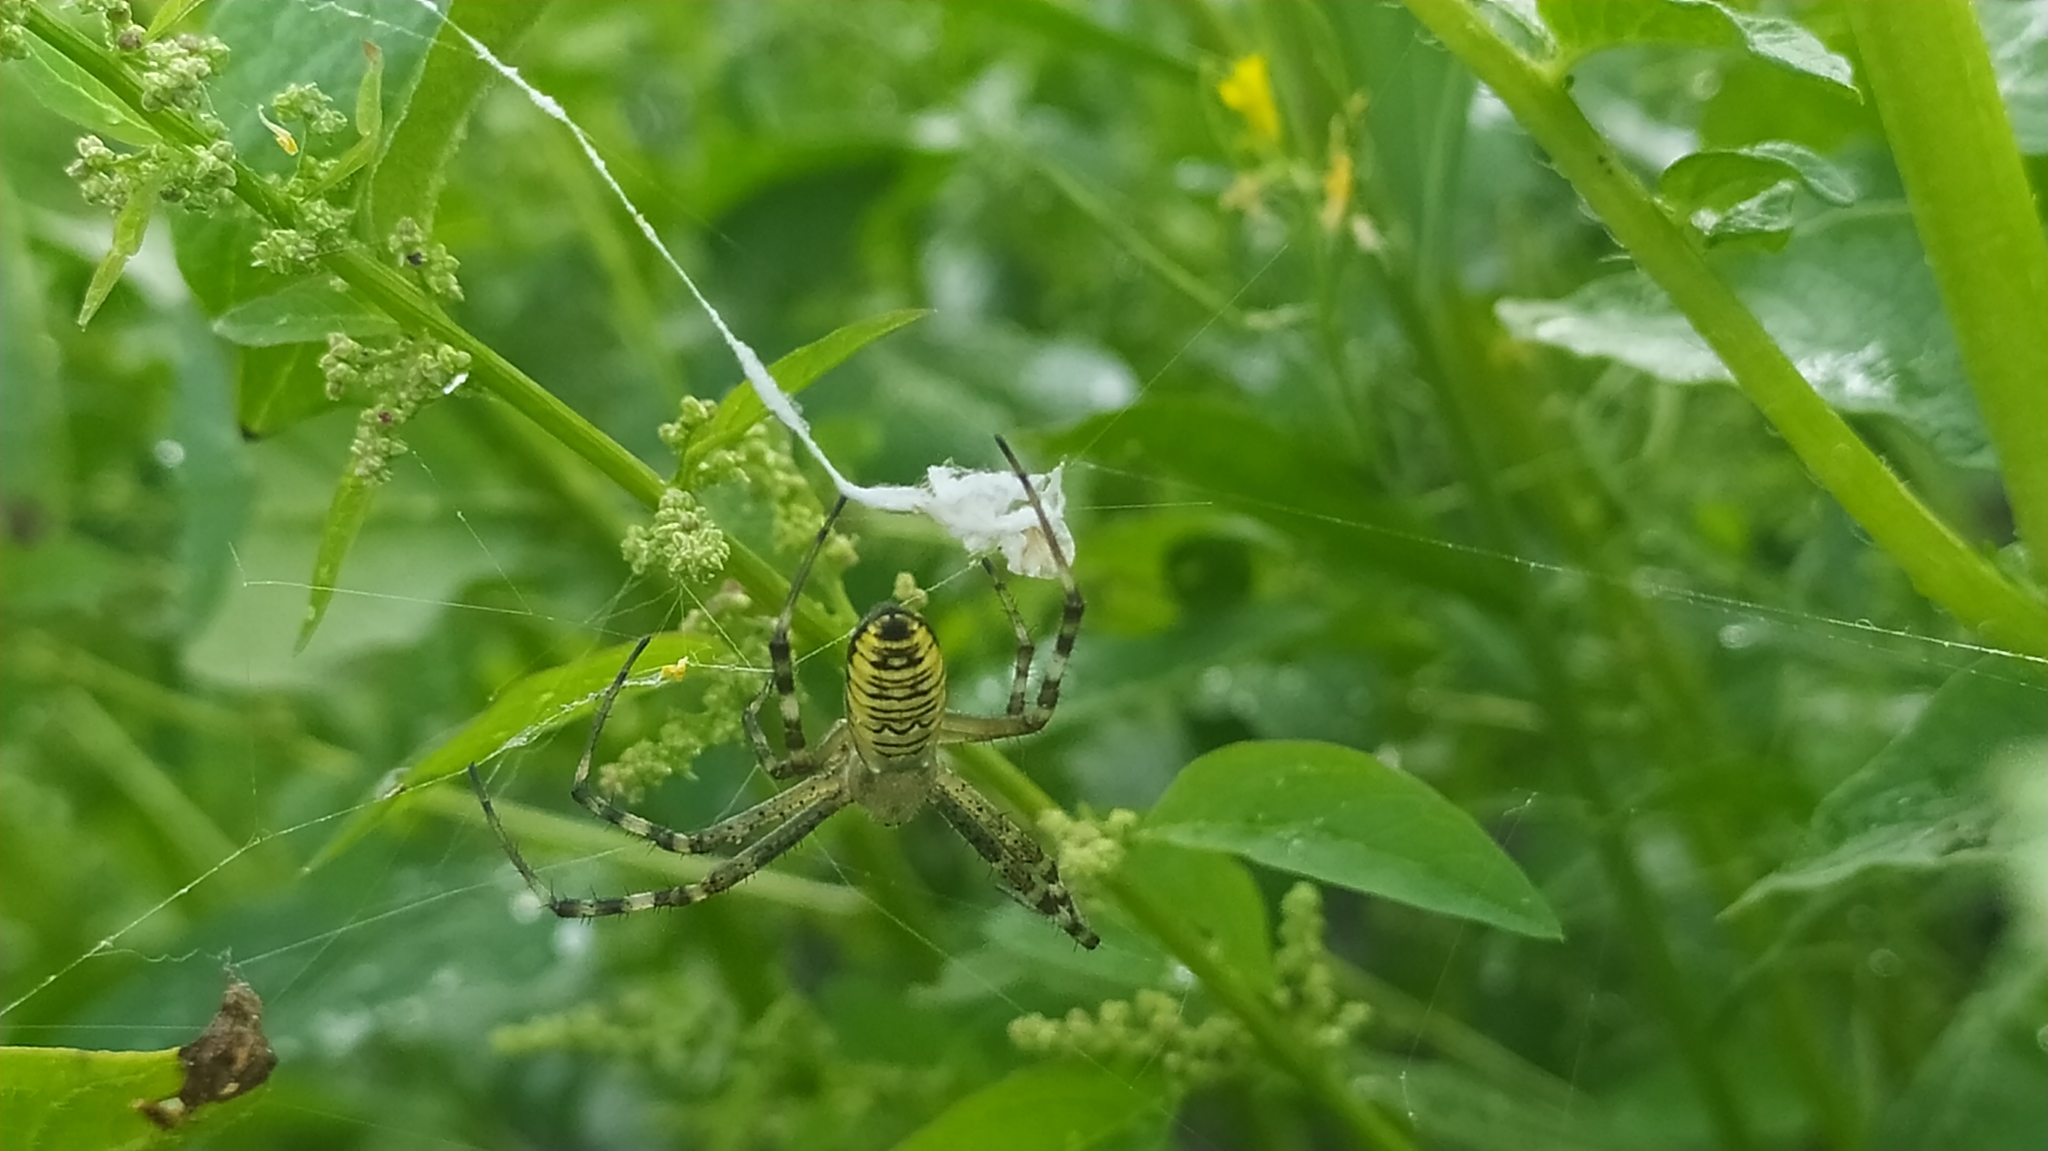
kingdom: Animalia
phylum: Arthropoda
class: Arachnida
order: Araneae
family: Araneidae
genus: Argiope
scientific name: Argiope bruennichi
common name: Wasp spider
